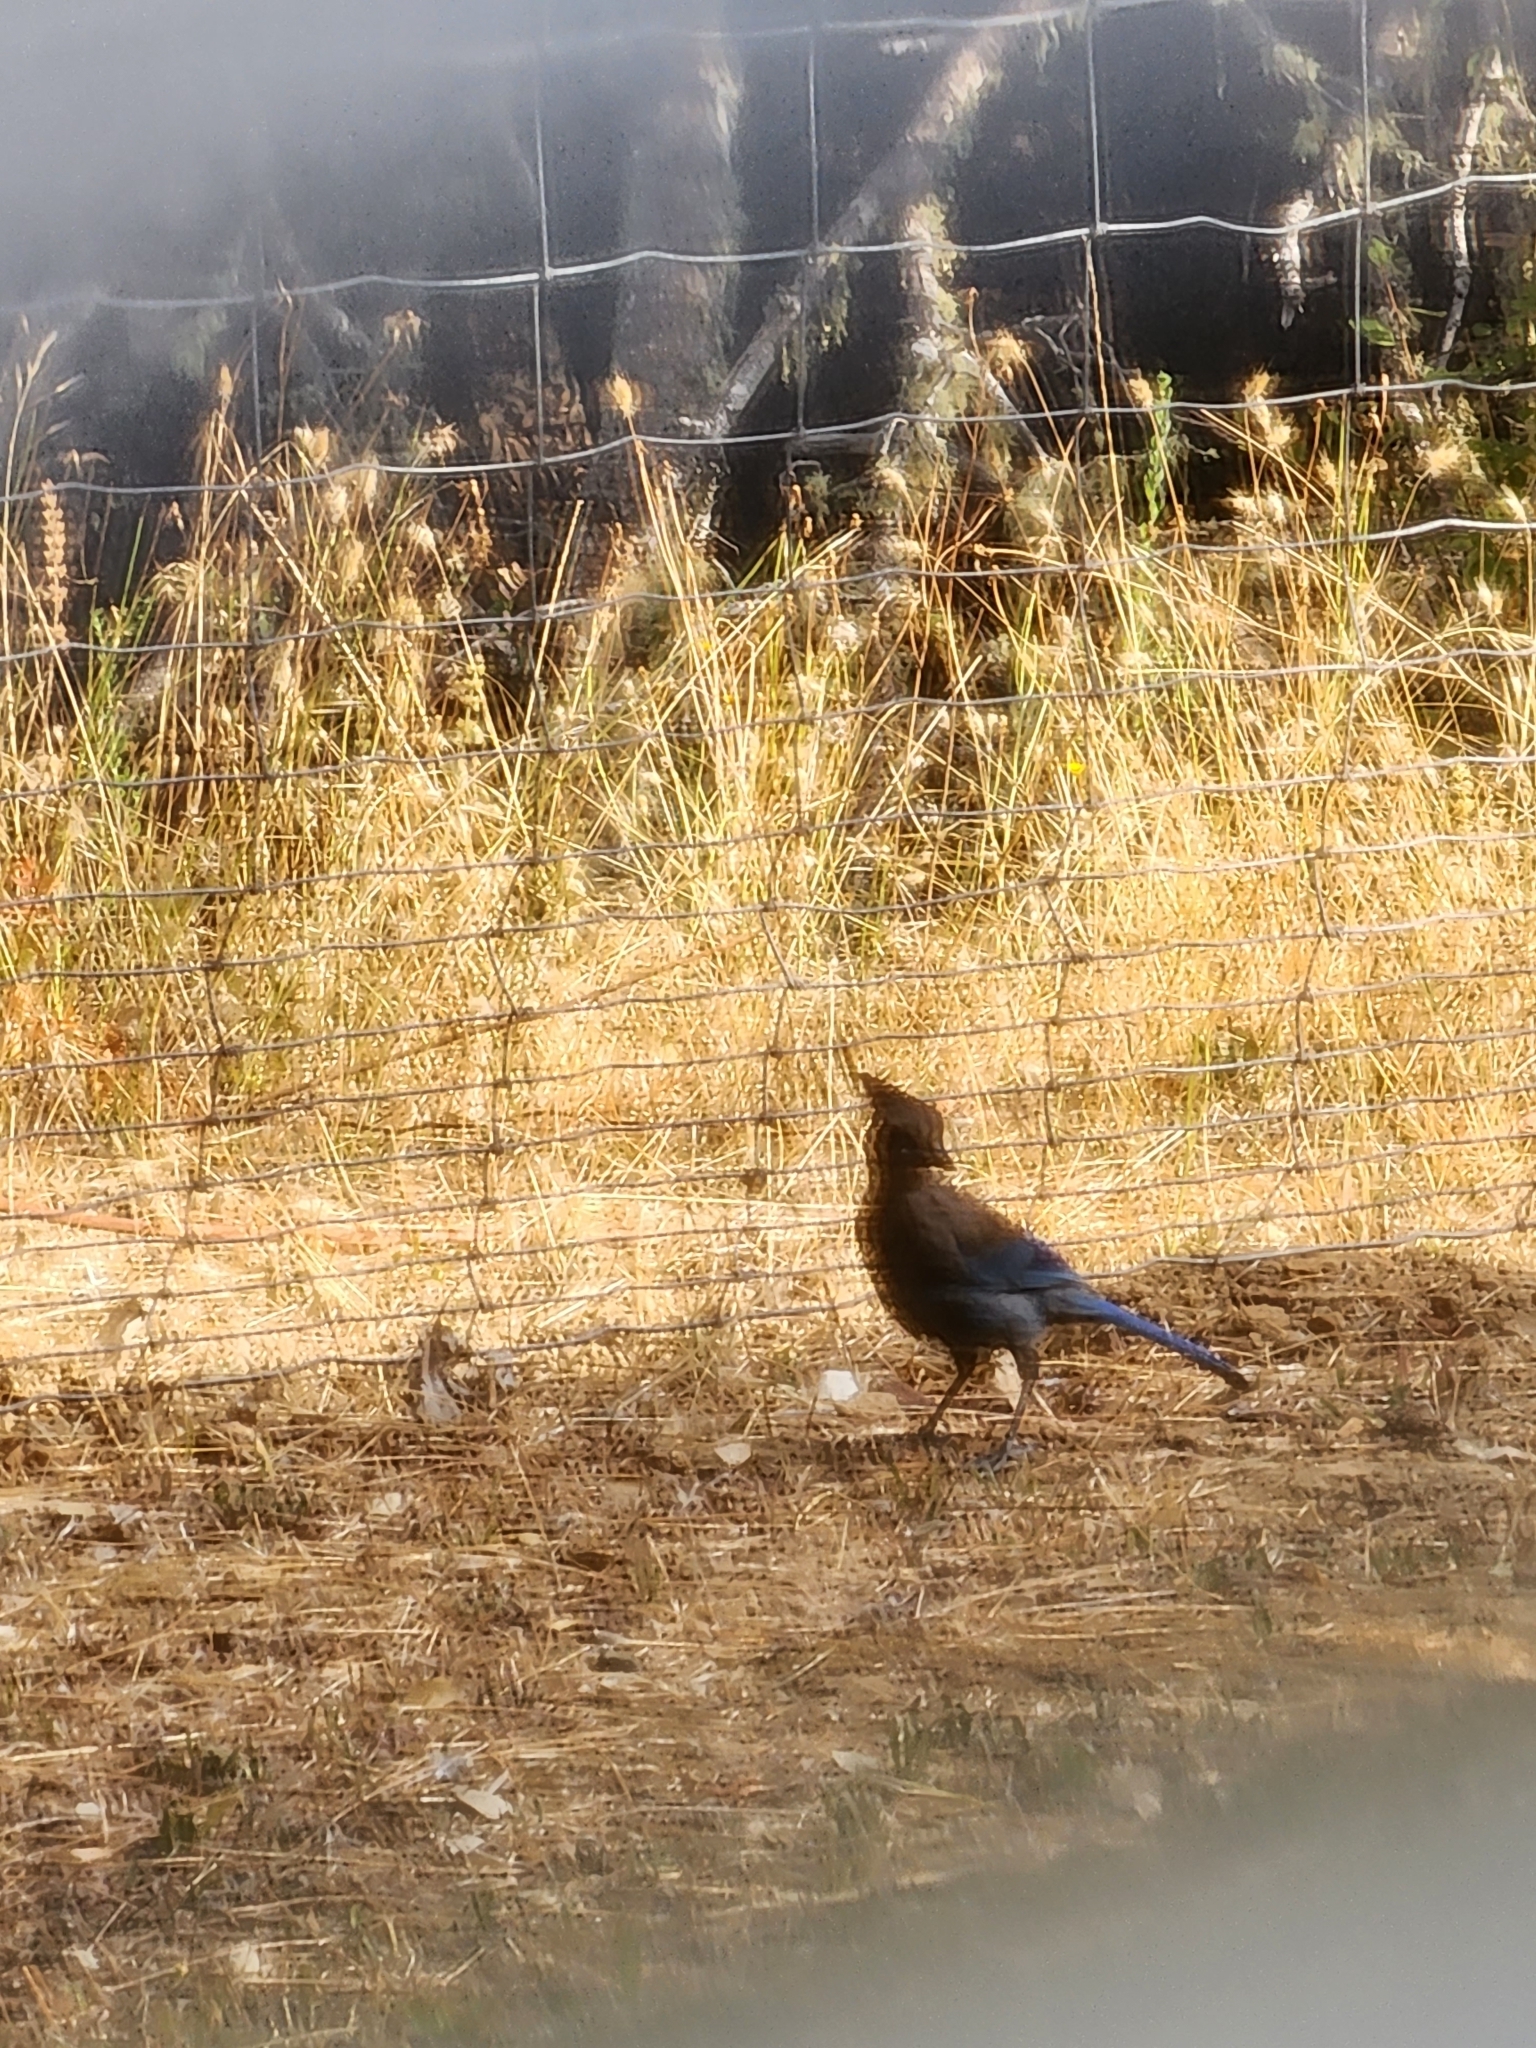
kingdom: Animalia
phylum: Chordata
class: Aves
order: Passeriformes
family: Corvidae
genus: Cyanocitta
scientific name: Cyanocitta stelleri
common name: Steller's jay
